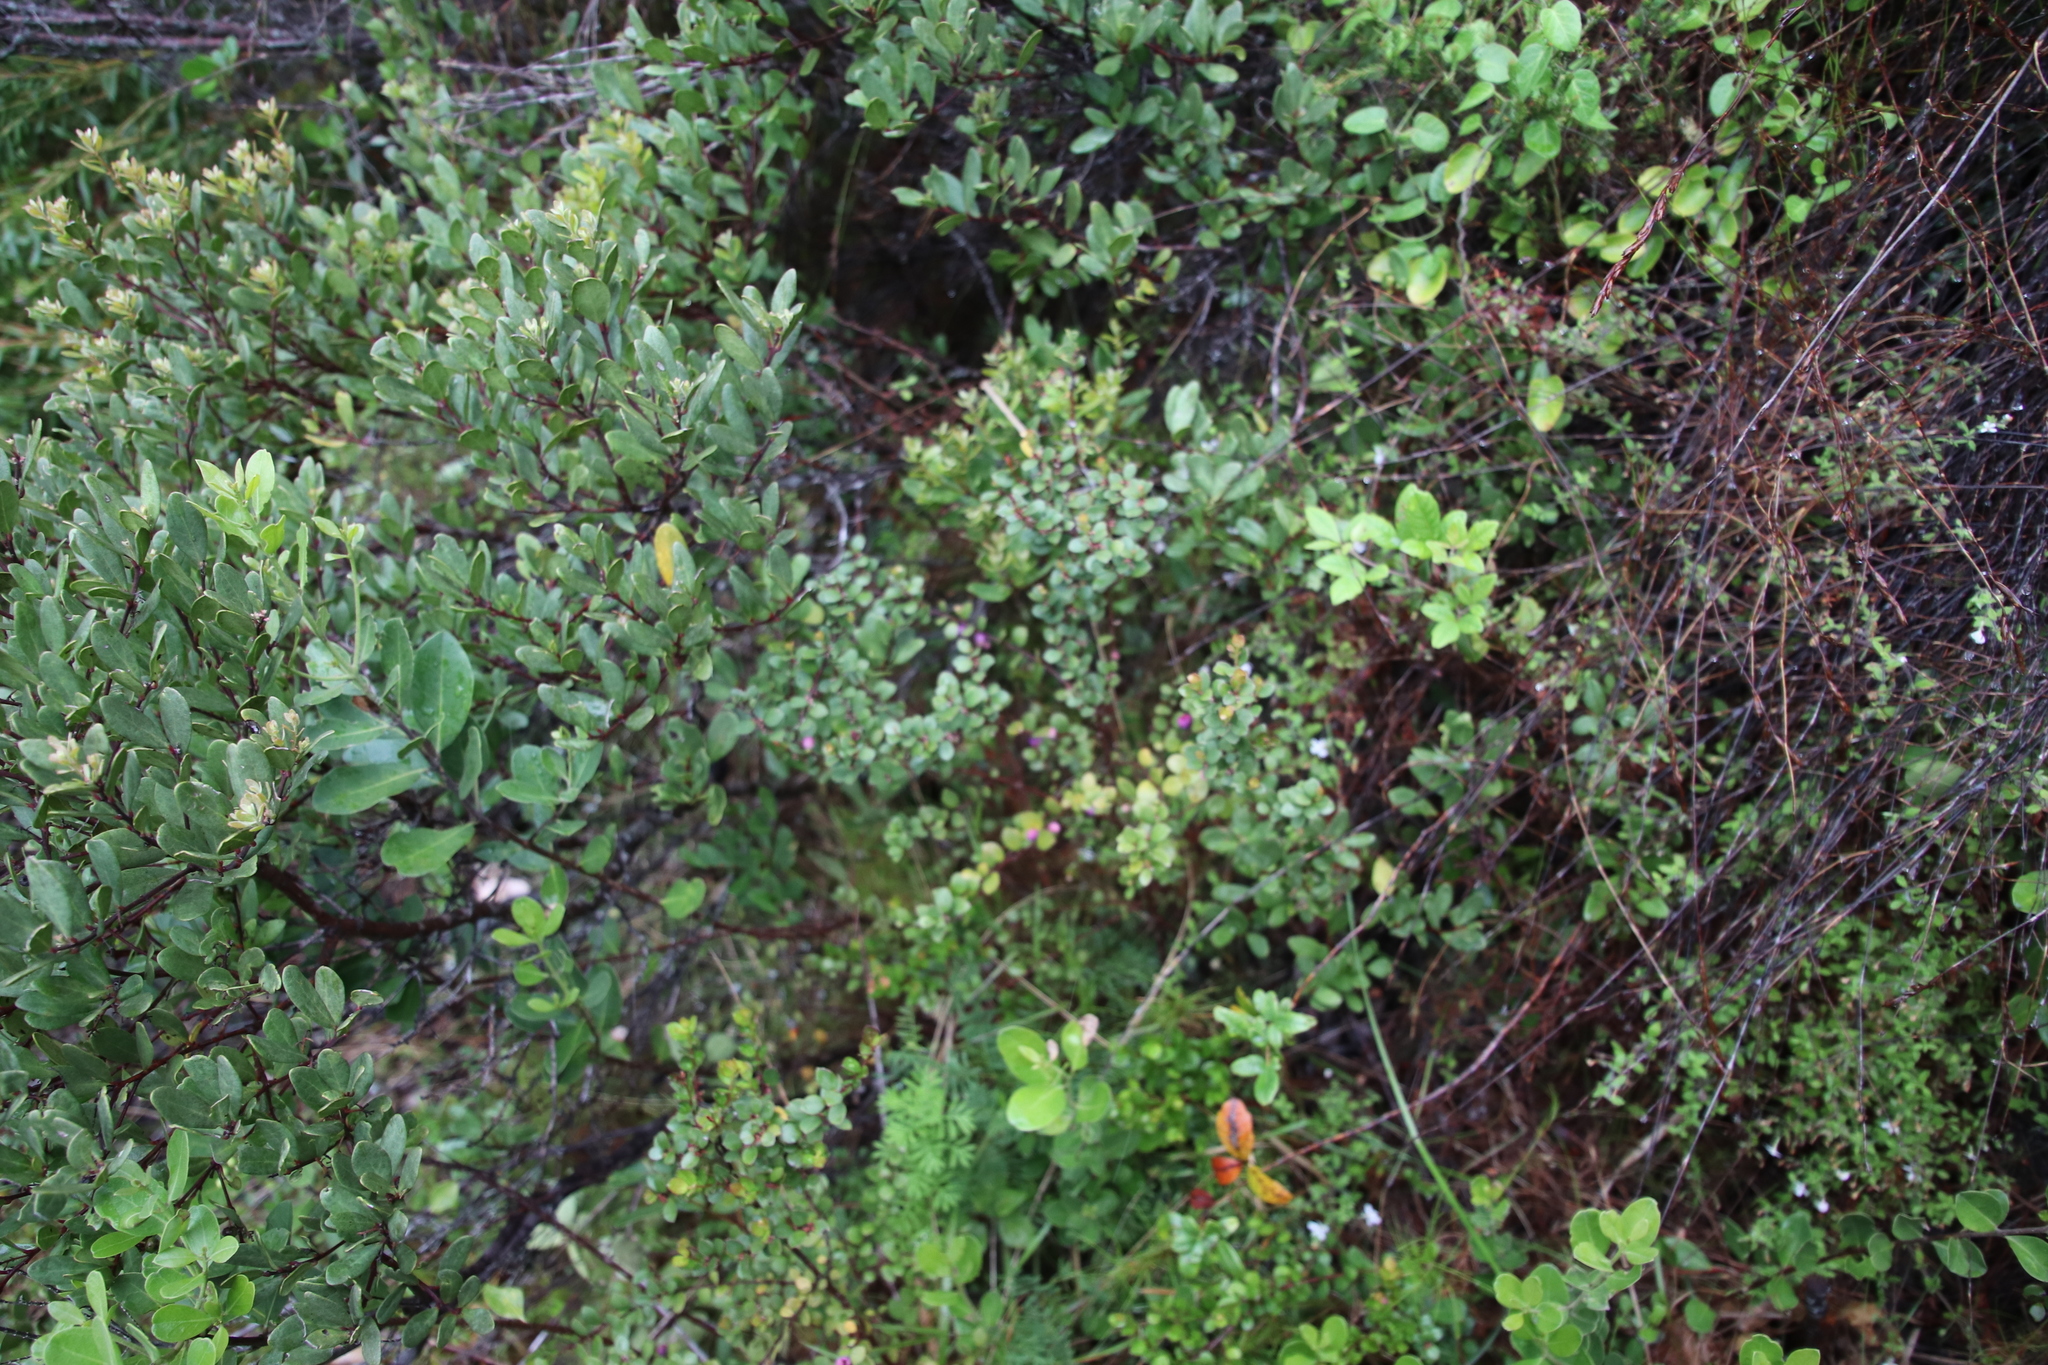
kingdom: Plantae
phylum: Tracheophyta
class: Magnoliopsida
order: Ericales
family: Primulaceae
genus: Myrsine
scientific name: Myrsine africana
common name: African-boxwood
